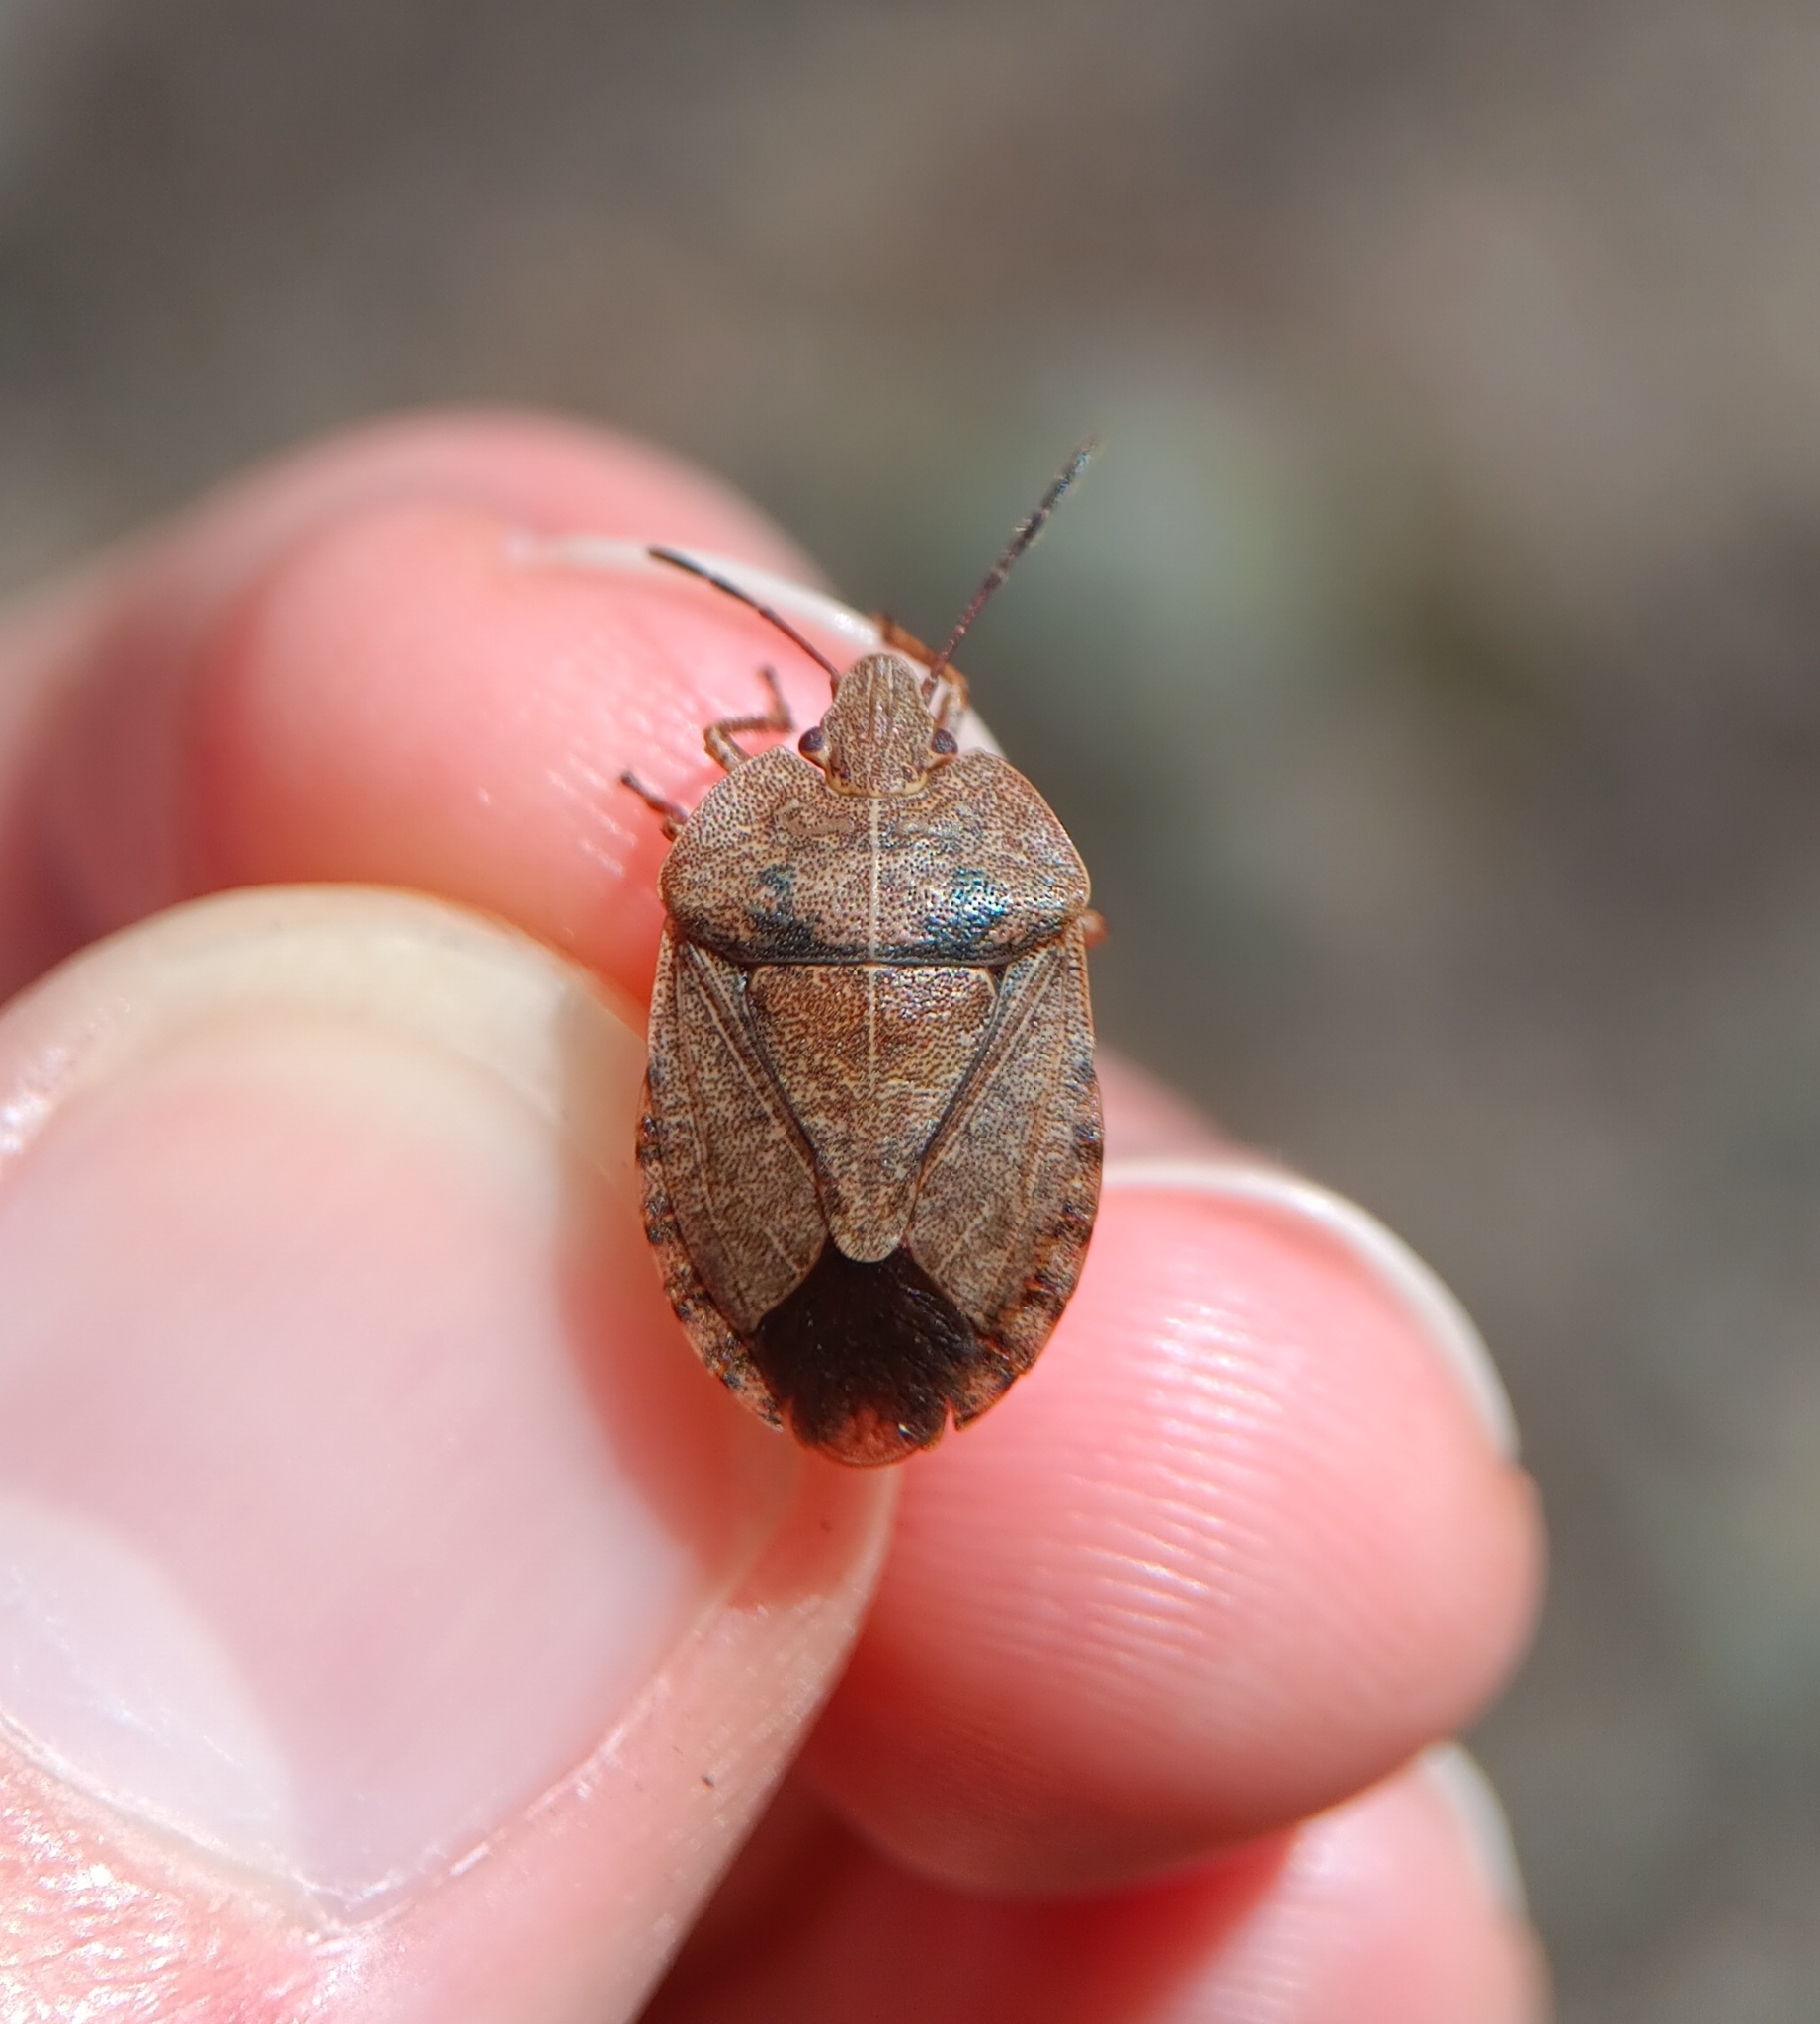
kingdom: Animalia
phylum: Arthropoda
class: Insecta
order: Hemiptera
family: Pentatomidae
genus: Menecles
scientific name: Menecles insertus
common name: Elf shoe stink bug
